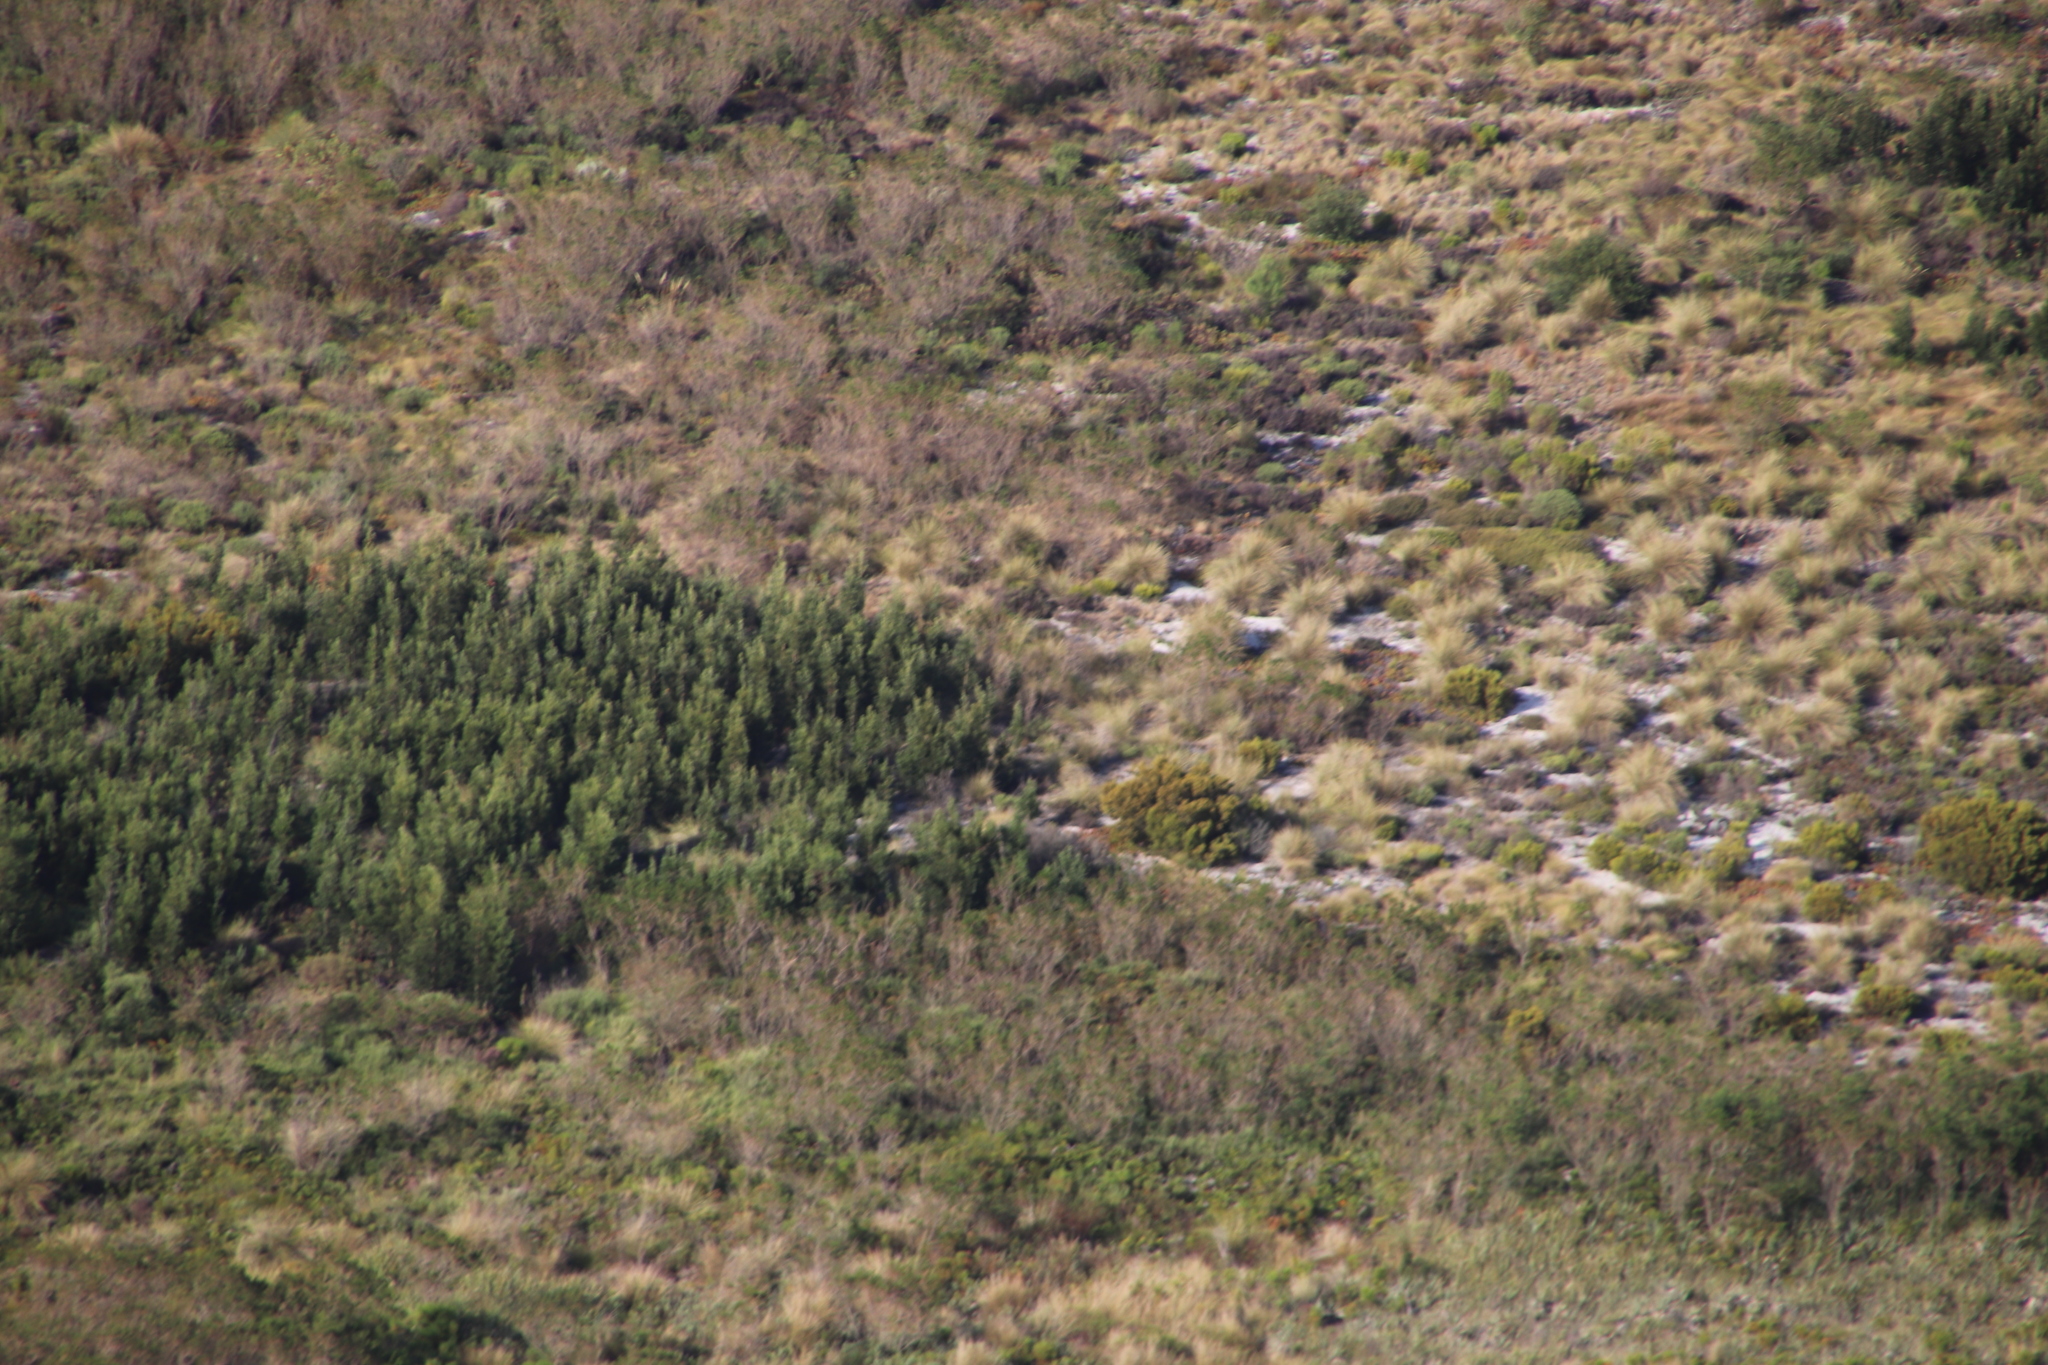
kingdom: Plantae
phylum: Tracheophyta
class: Magnoliopsida
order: Fabales
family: Fabaceae
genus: Acacia
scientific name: Acacia melanoxylon
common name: Blackwood
